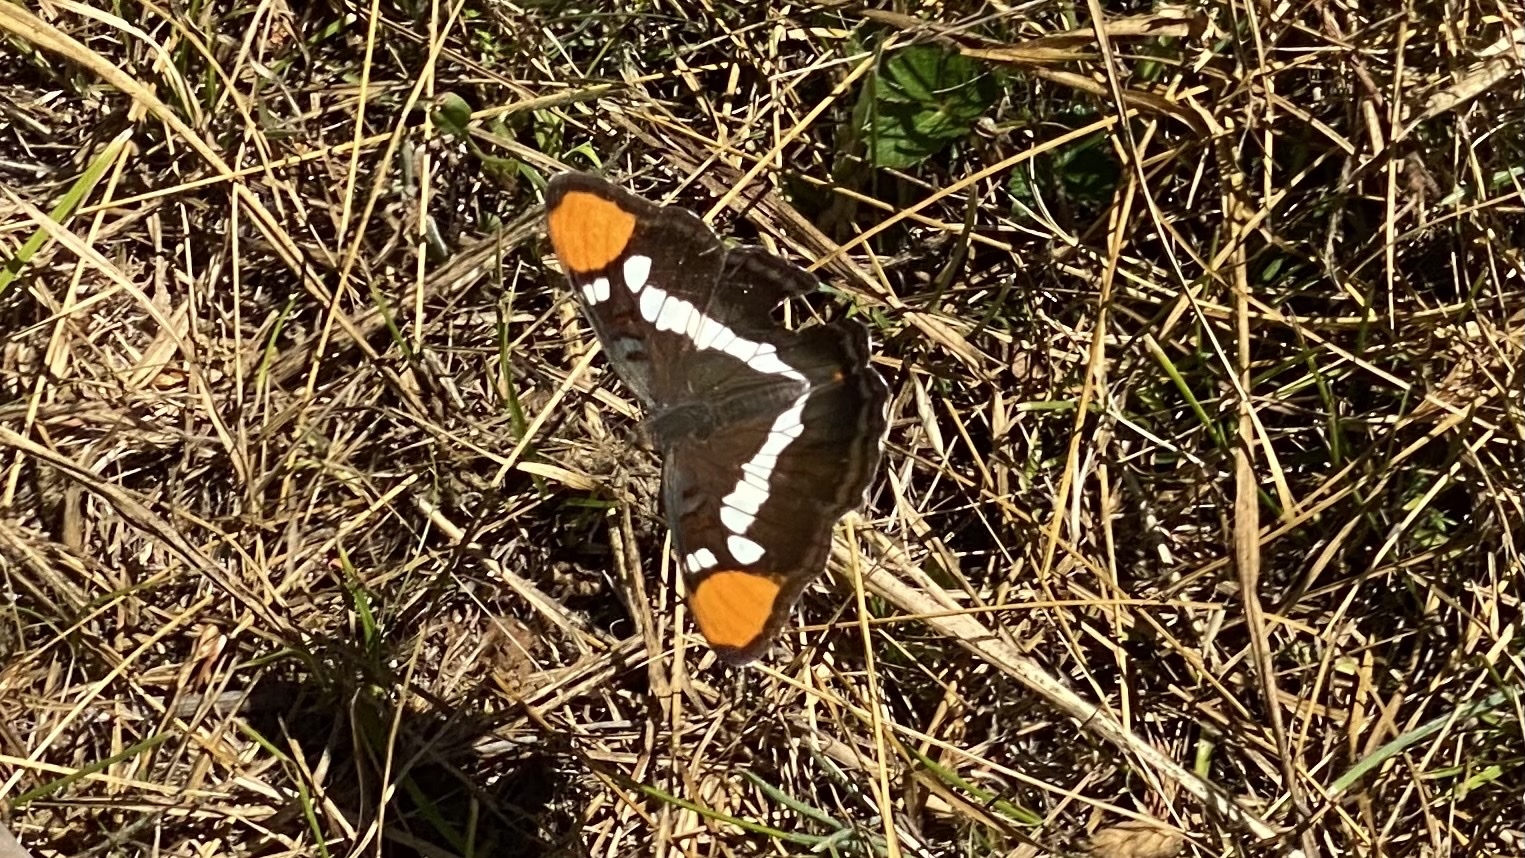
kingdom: Animalia
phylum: Arthropoda
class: Insecta
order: Lepidoptera
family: Nymphalidae
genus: Limenitis
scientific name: Limenitis bredowii
